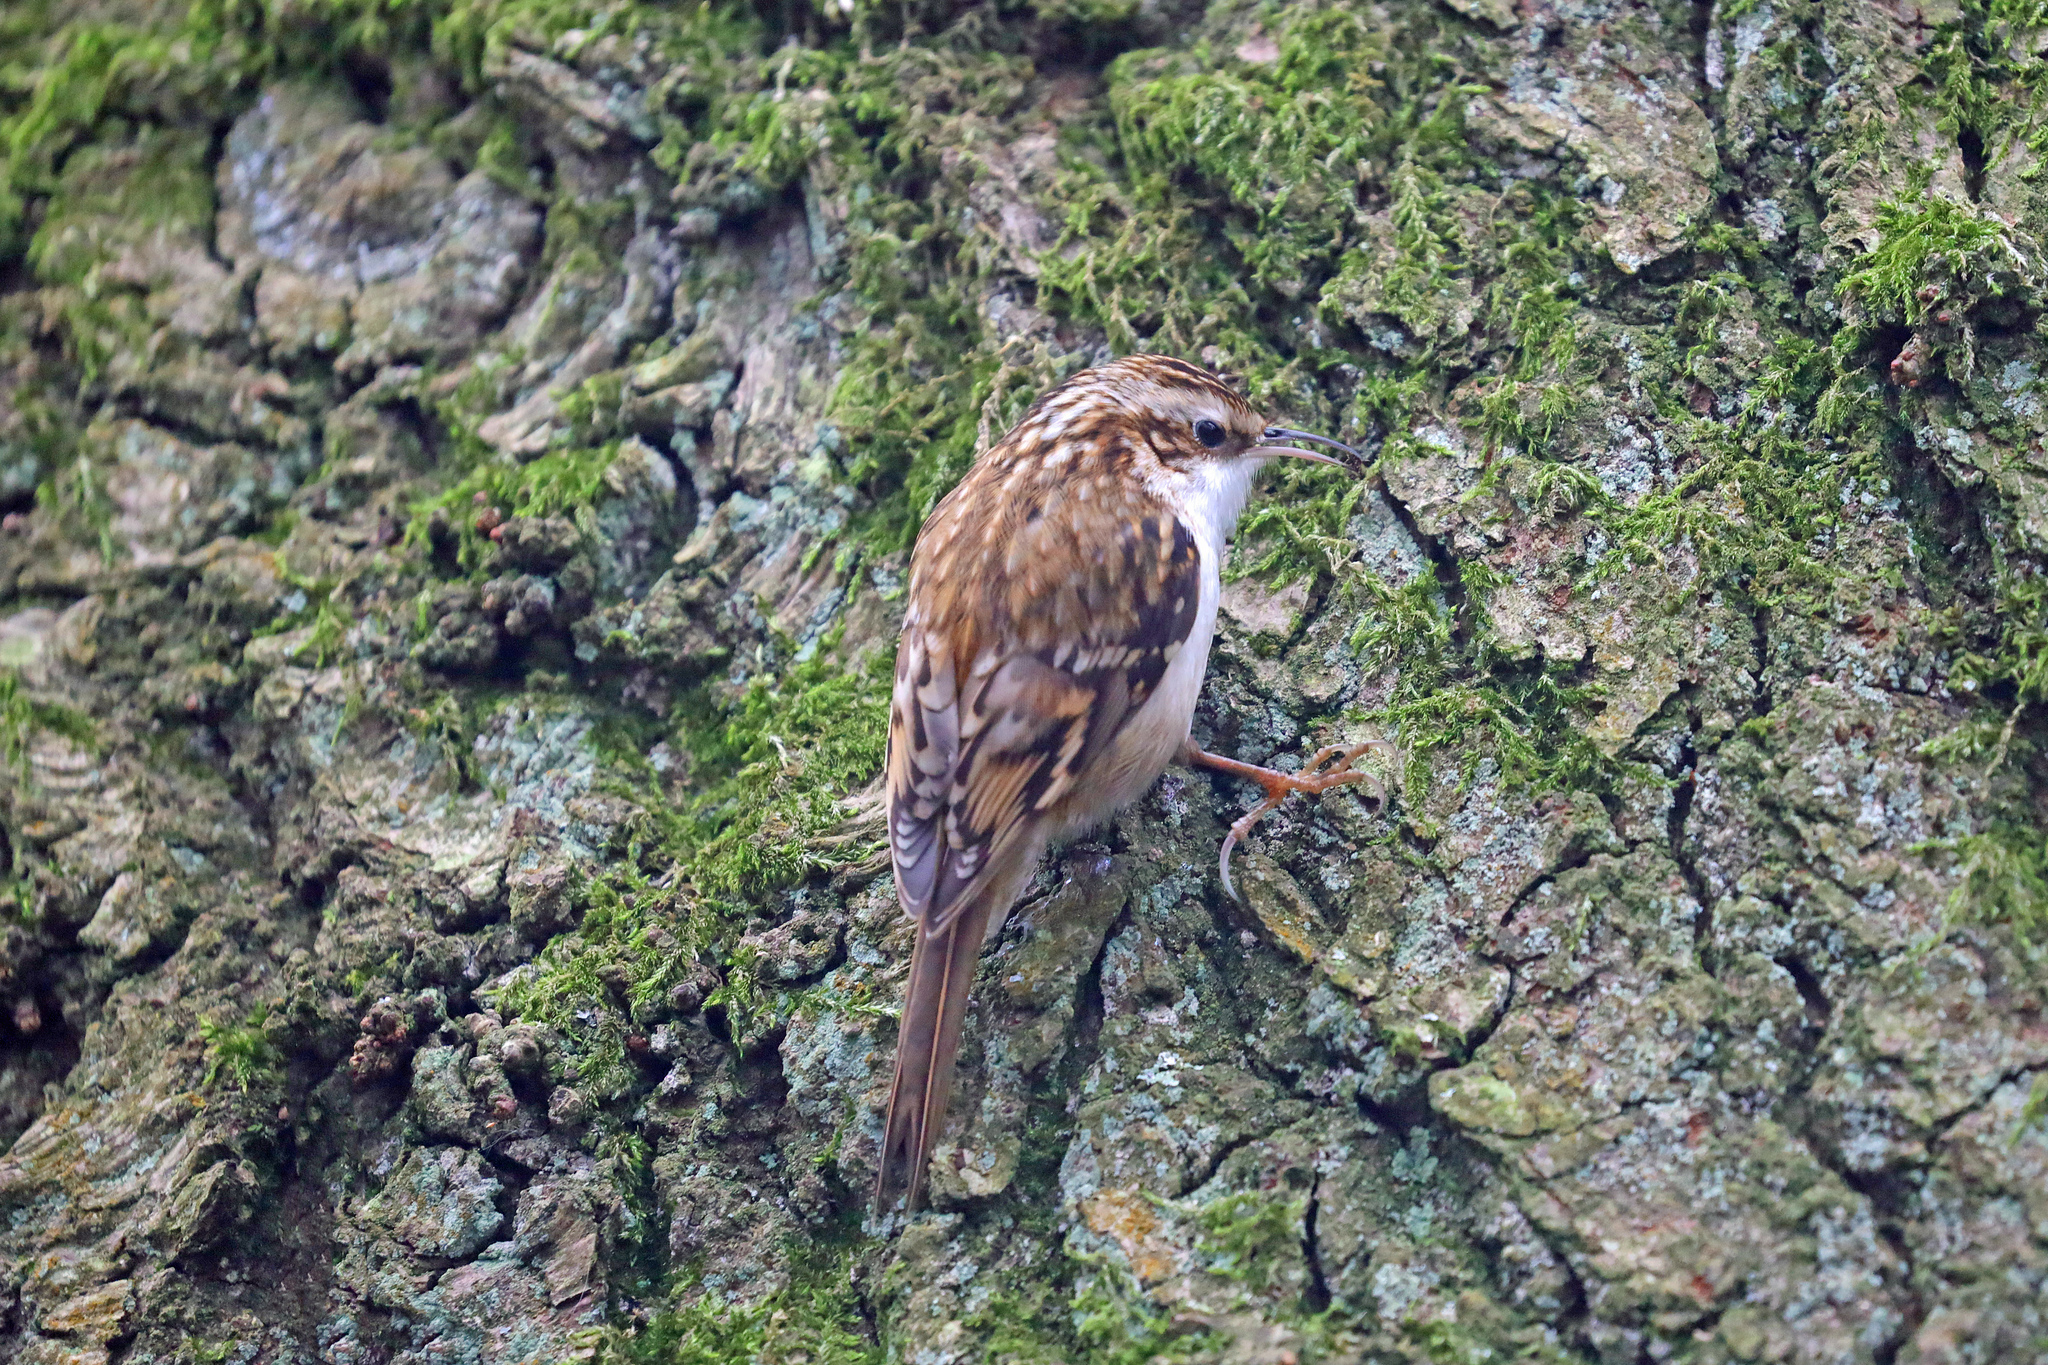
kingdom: Animalia
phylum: Chordata
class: Aves
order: Passeriformes
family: Certhiidae
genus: Certhia
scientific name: Certhia familiaris
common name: Eurasian treecreeper
